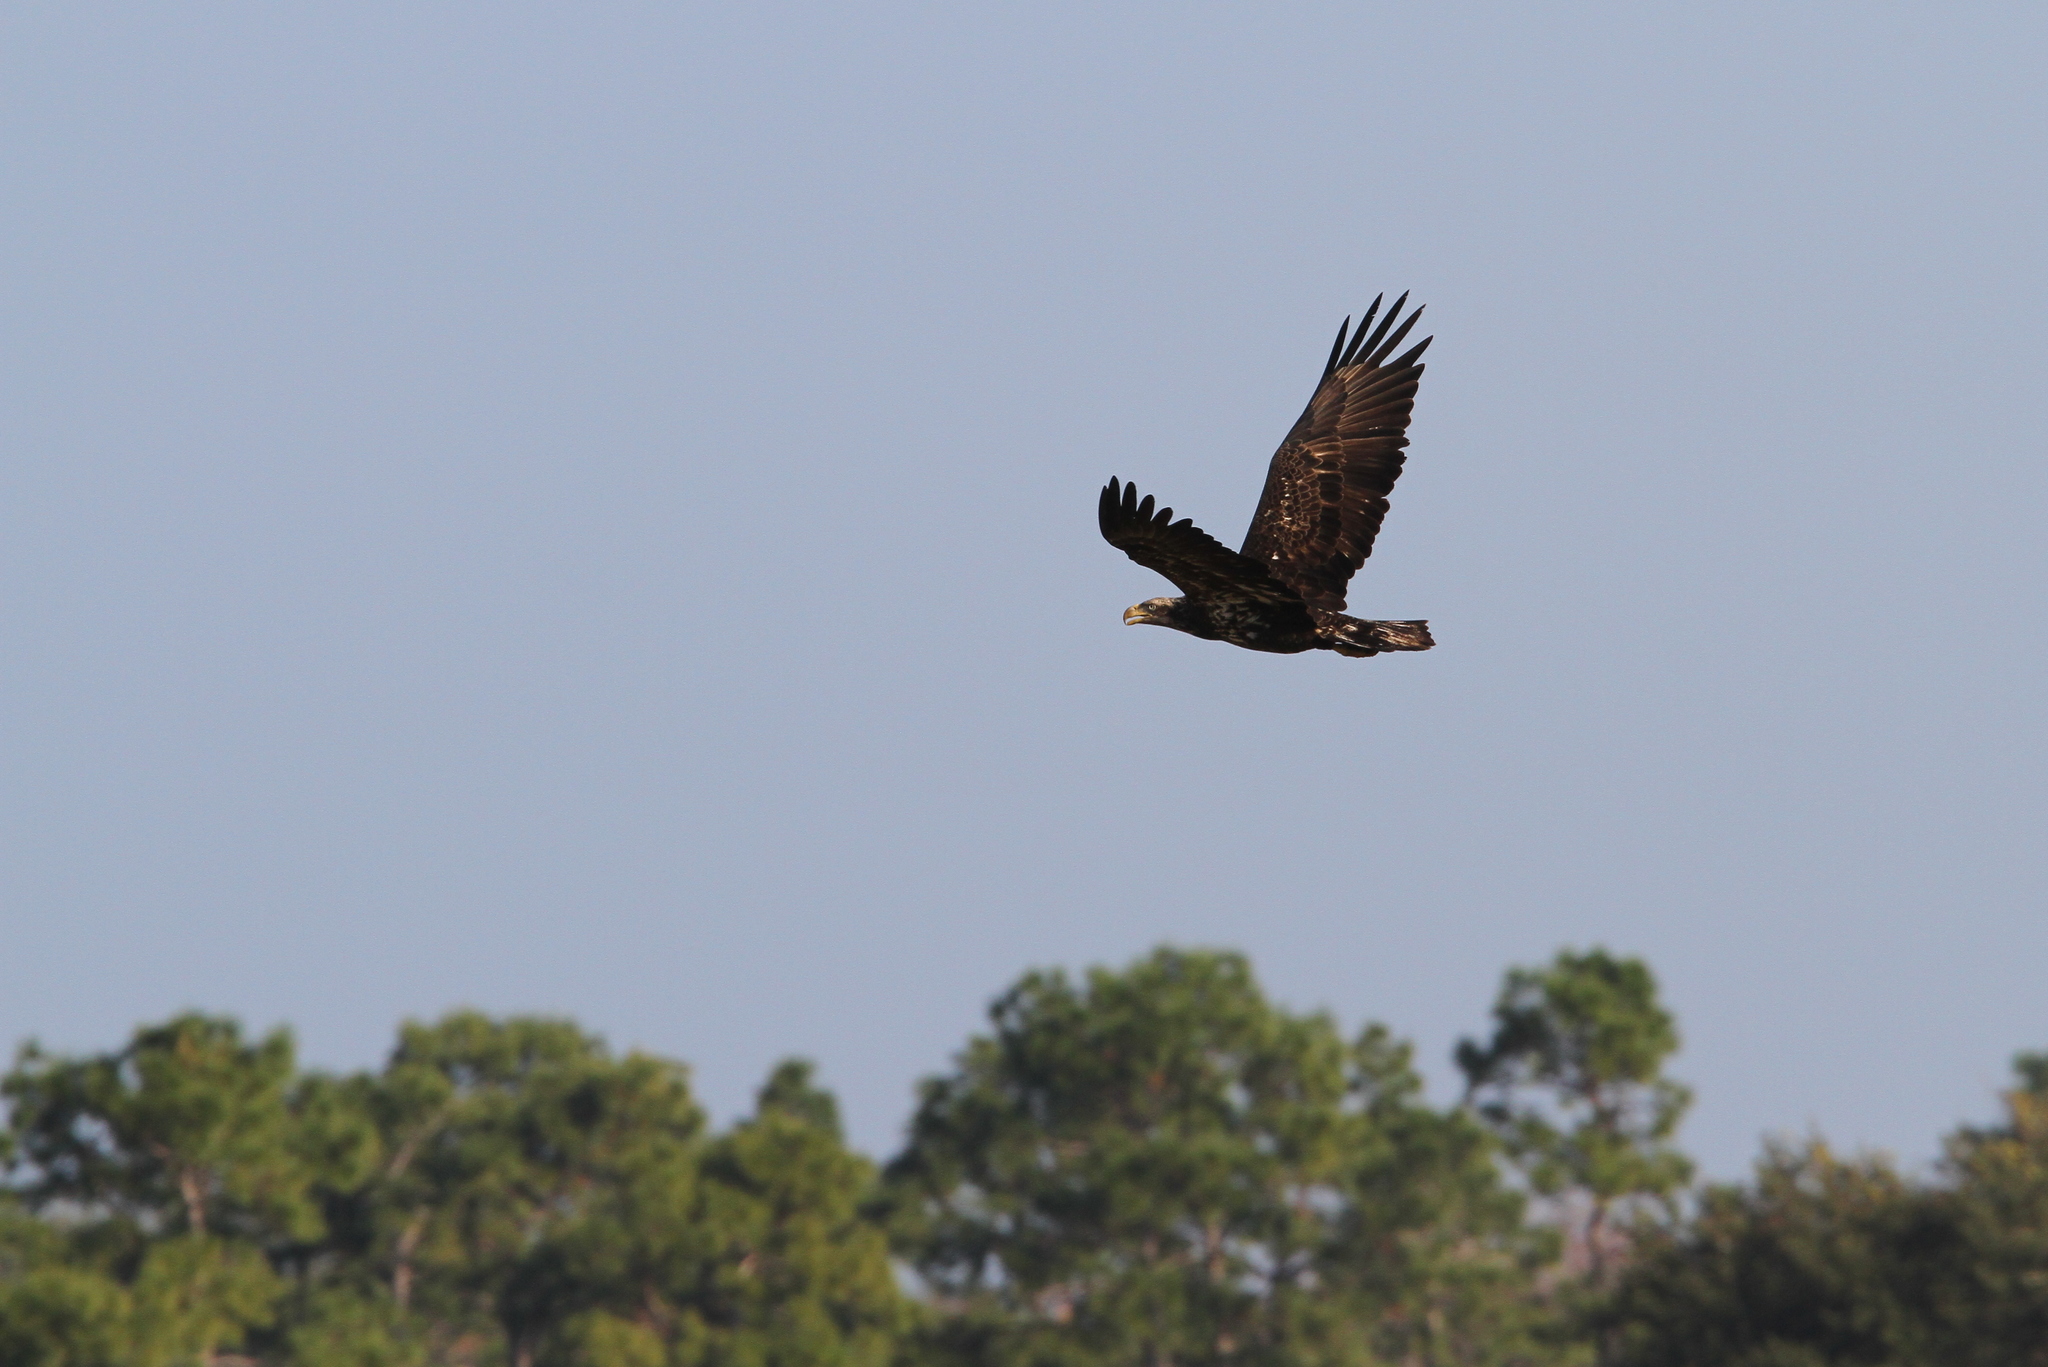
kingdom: Animalia
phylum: Chordata
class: Aves
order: Accipitriformes
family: Accipitridae
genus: Haliaeetus
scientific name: Haliaeetus leucocephalus
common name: Bald eagle
